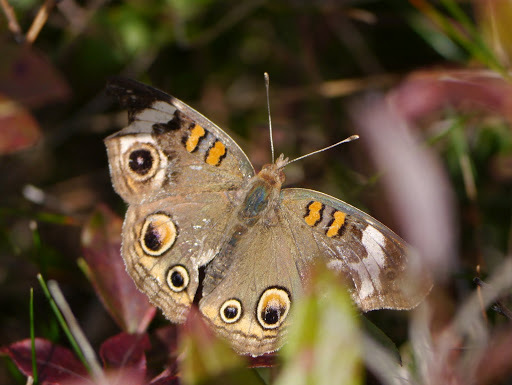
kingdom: Animalia
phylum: Arthropoda
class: Insecta
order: Lepidoptera
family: Nymphalidae
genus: Junonia
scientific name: Junonia coenia
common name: Common buckeye
